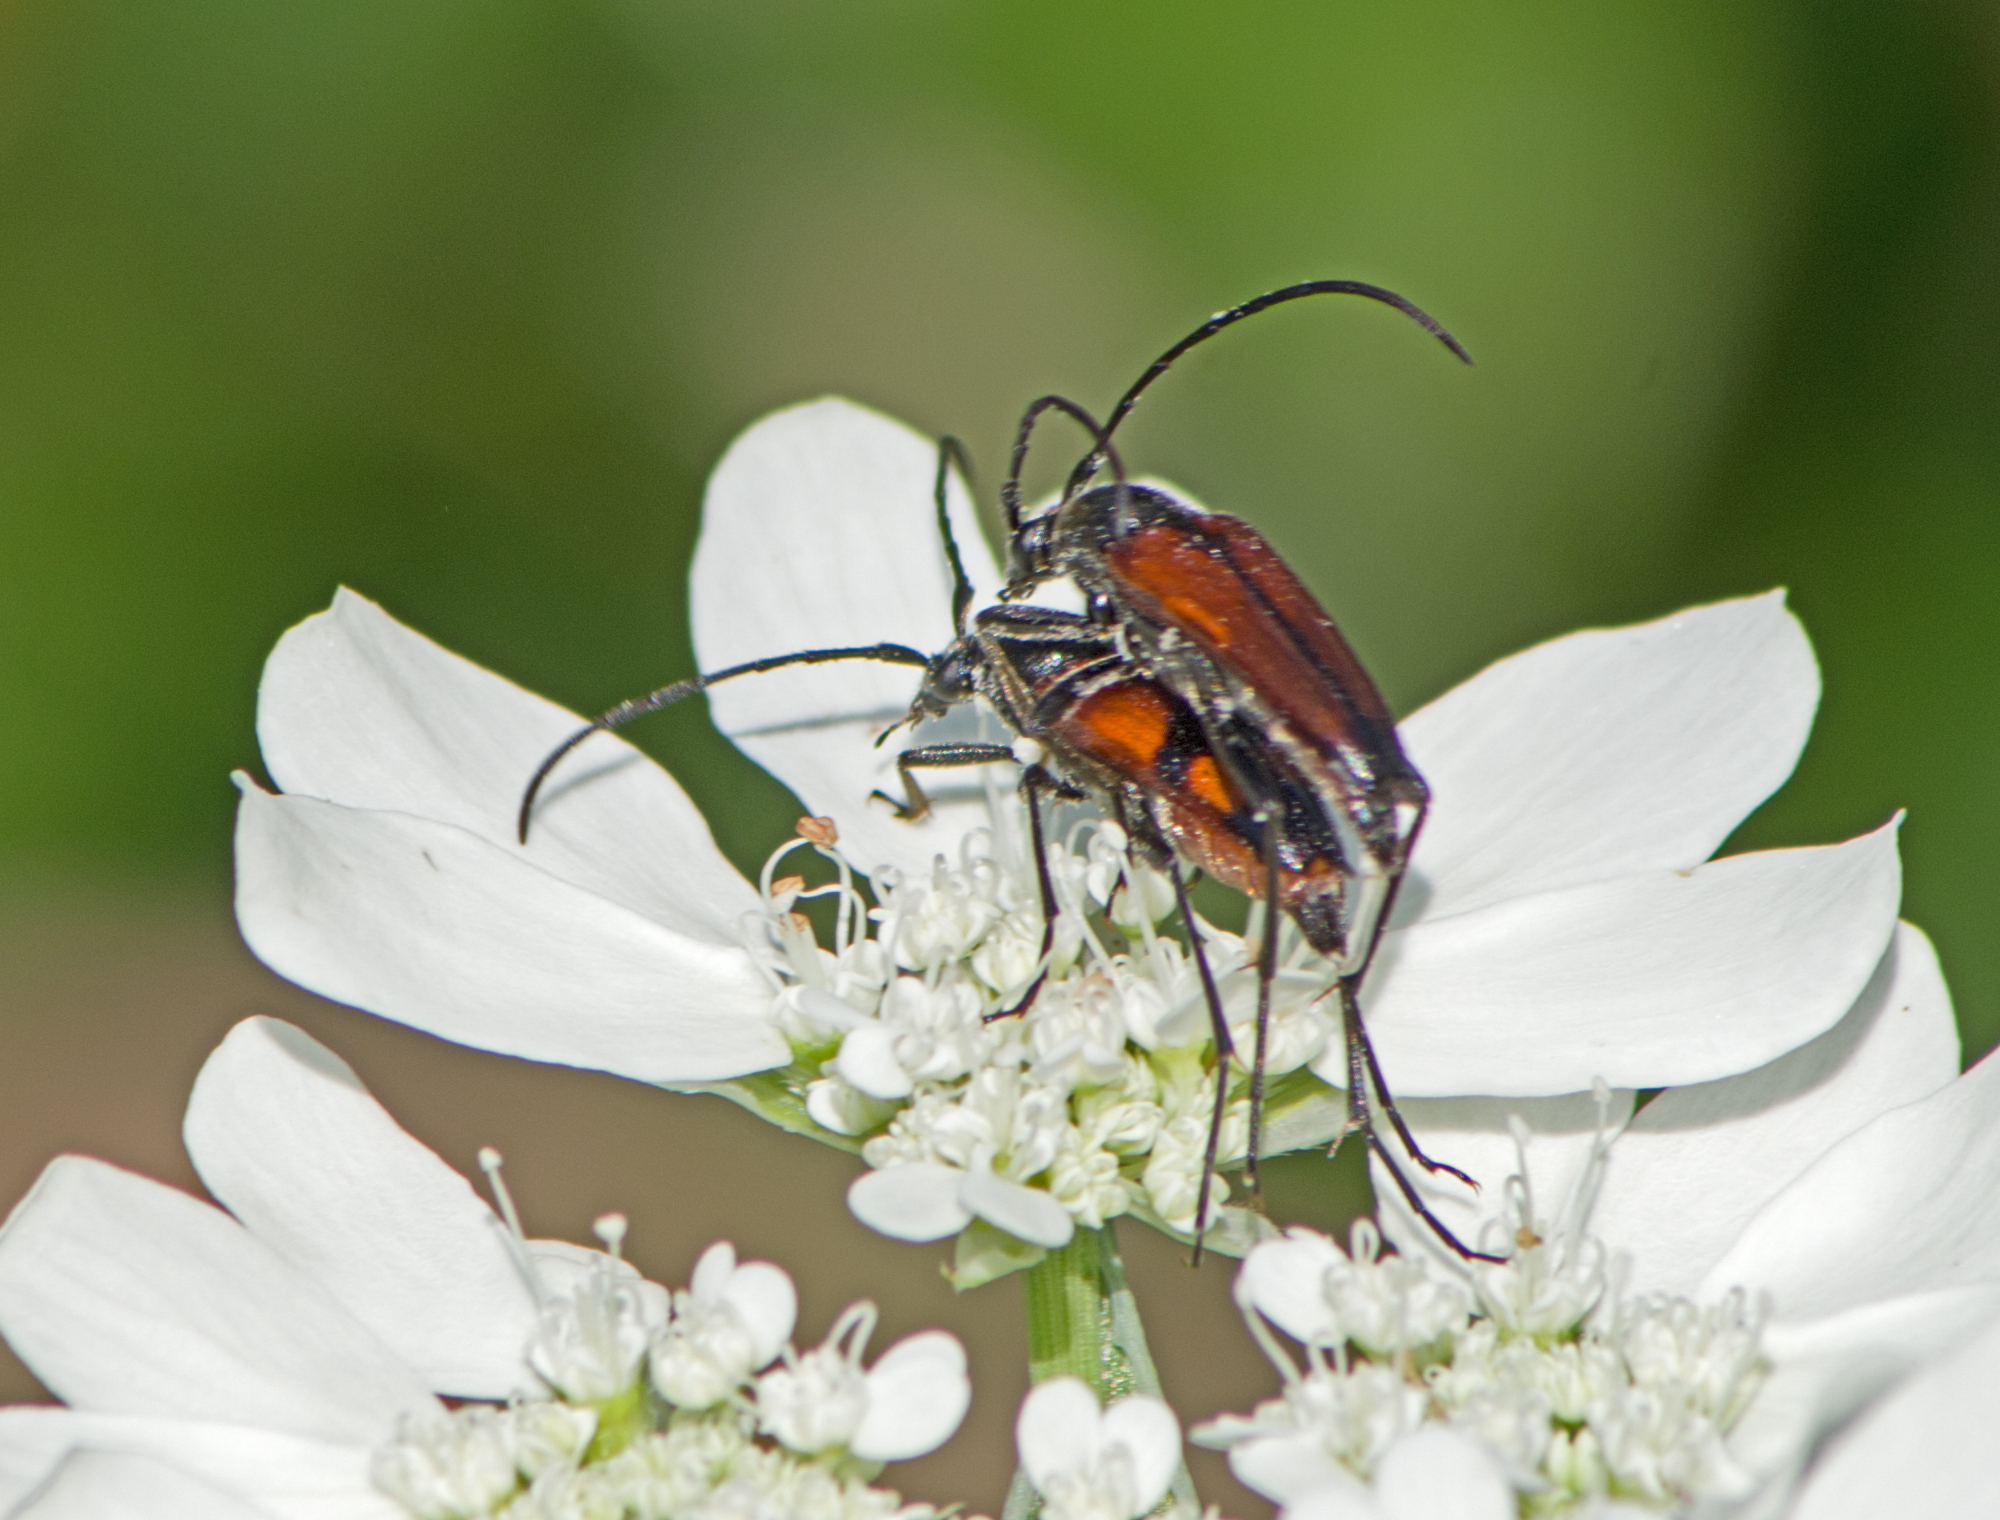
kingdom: Animalia
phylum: Arthropoda
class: Insecta
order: Coleoptera
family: Cerambycidae
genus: Stenurella
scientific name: Stenurella bifasciata
